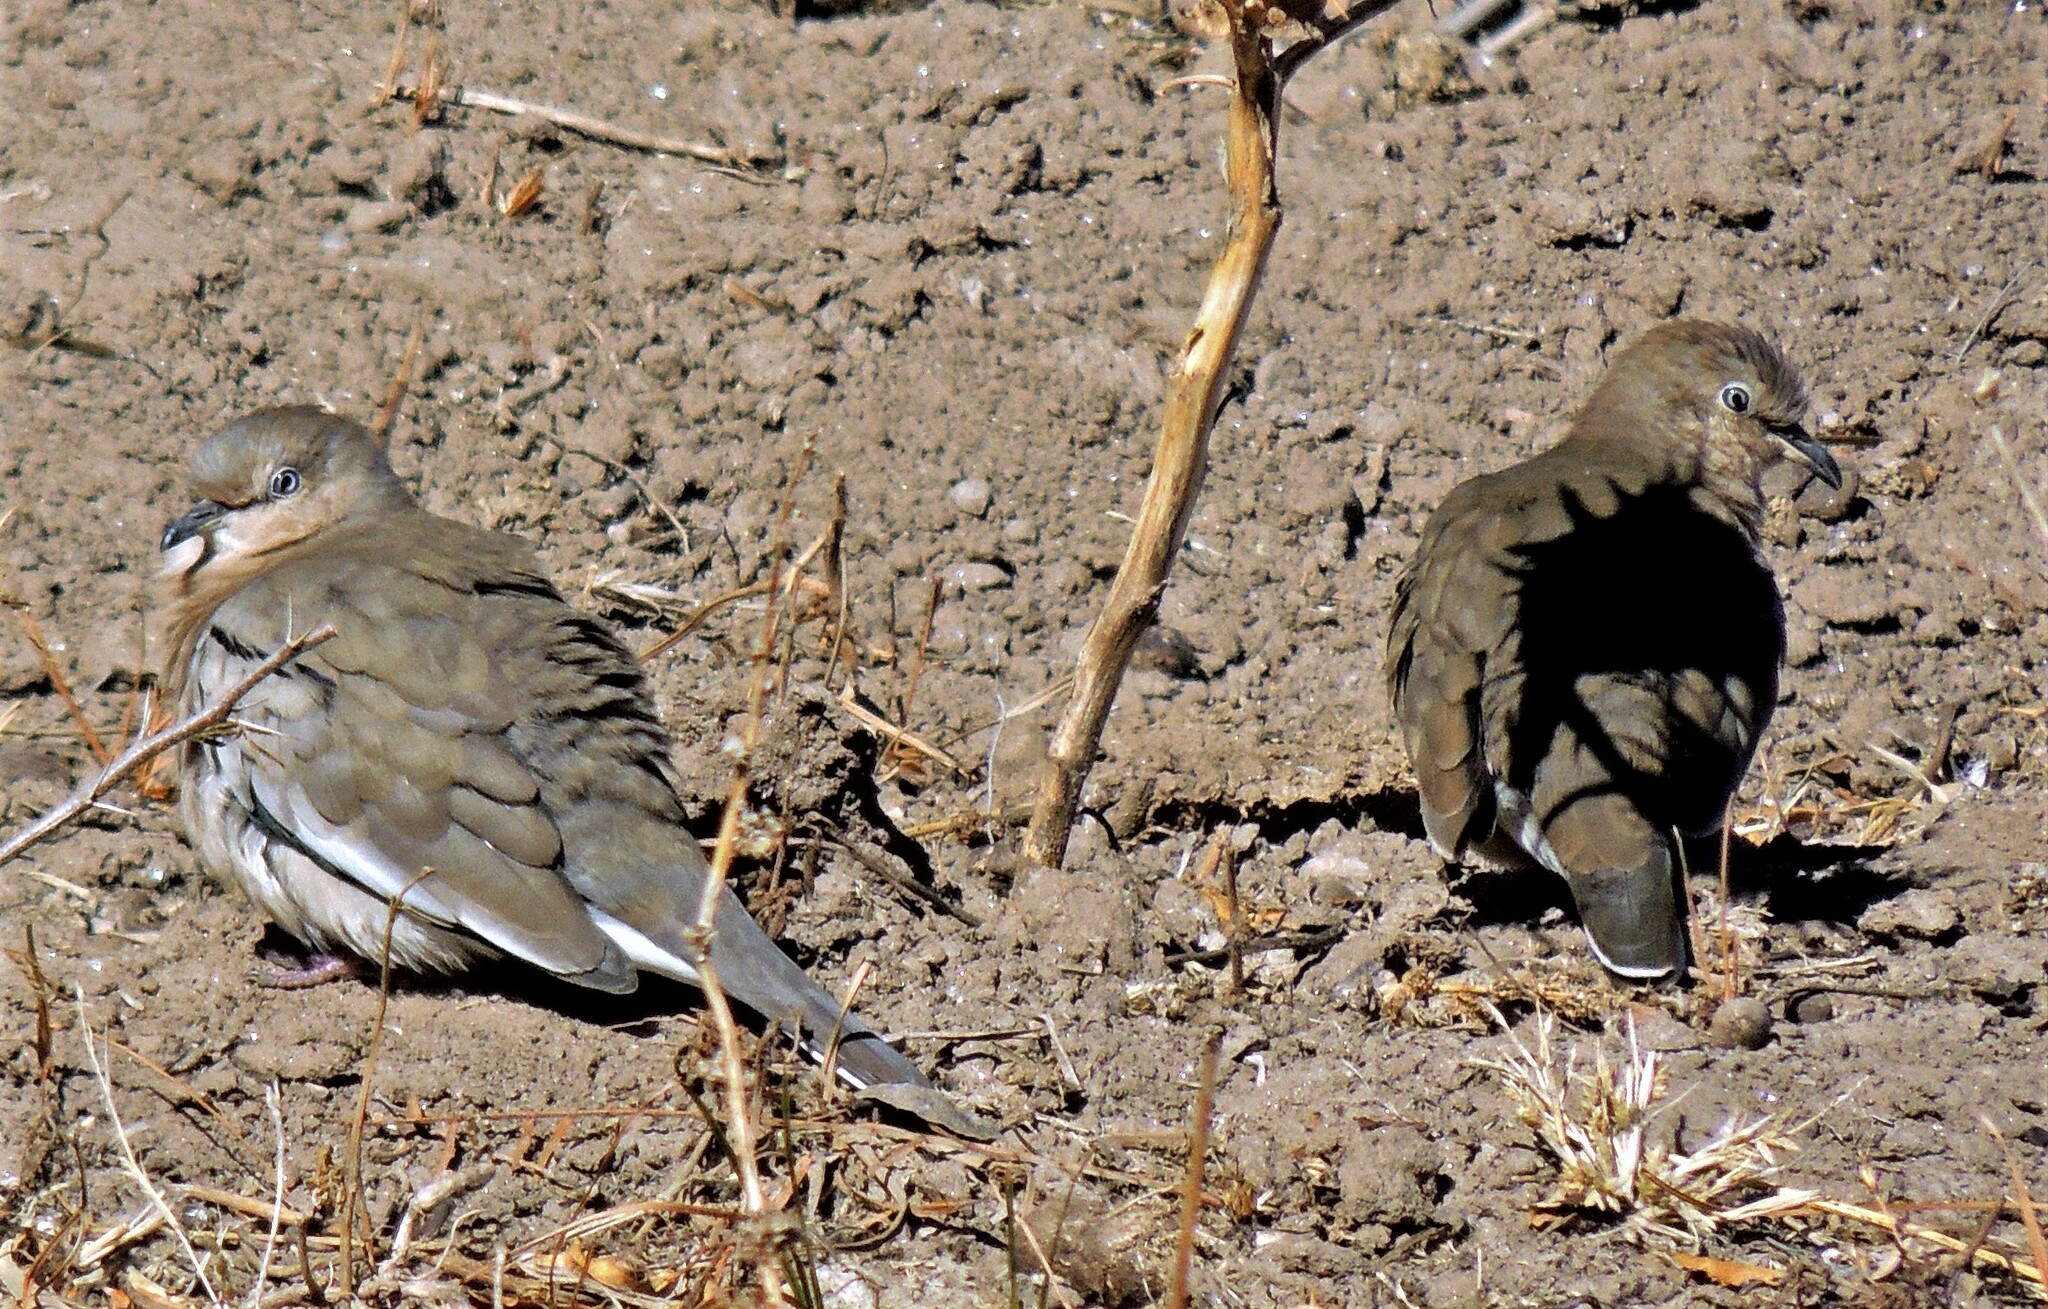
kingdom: Animalia
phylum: Chordata
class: Aves
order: Columbiformes
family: Columbidae
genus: Columbina
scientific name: Columbina picui
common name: Picui ground dove
